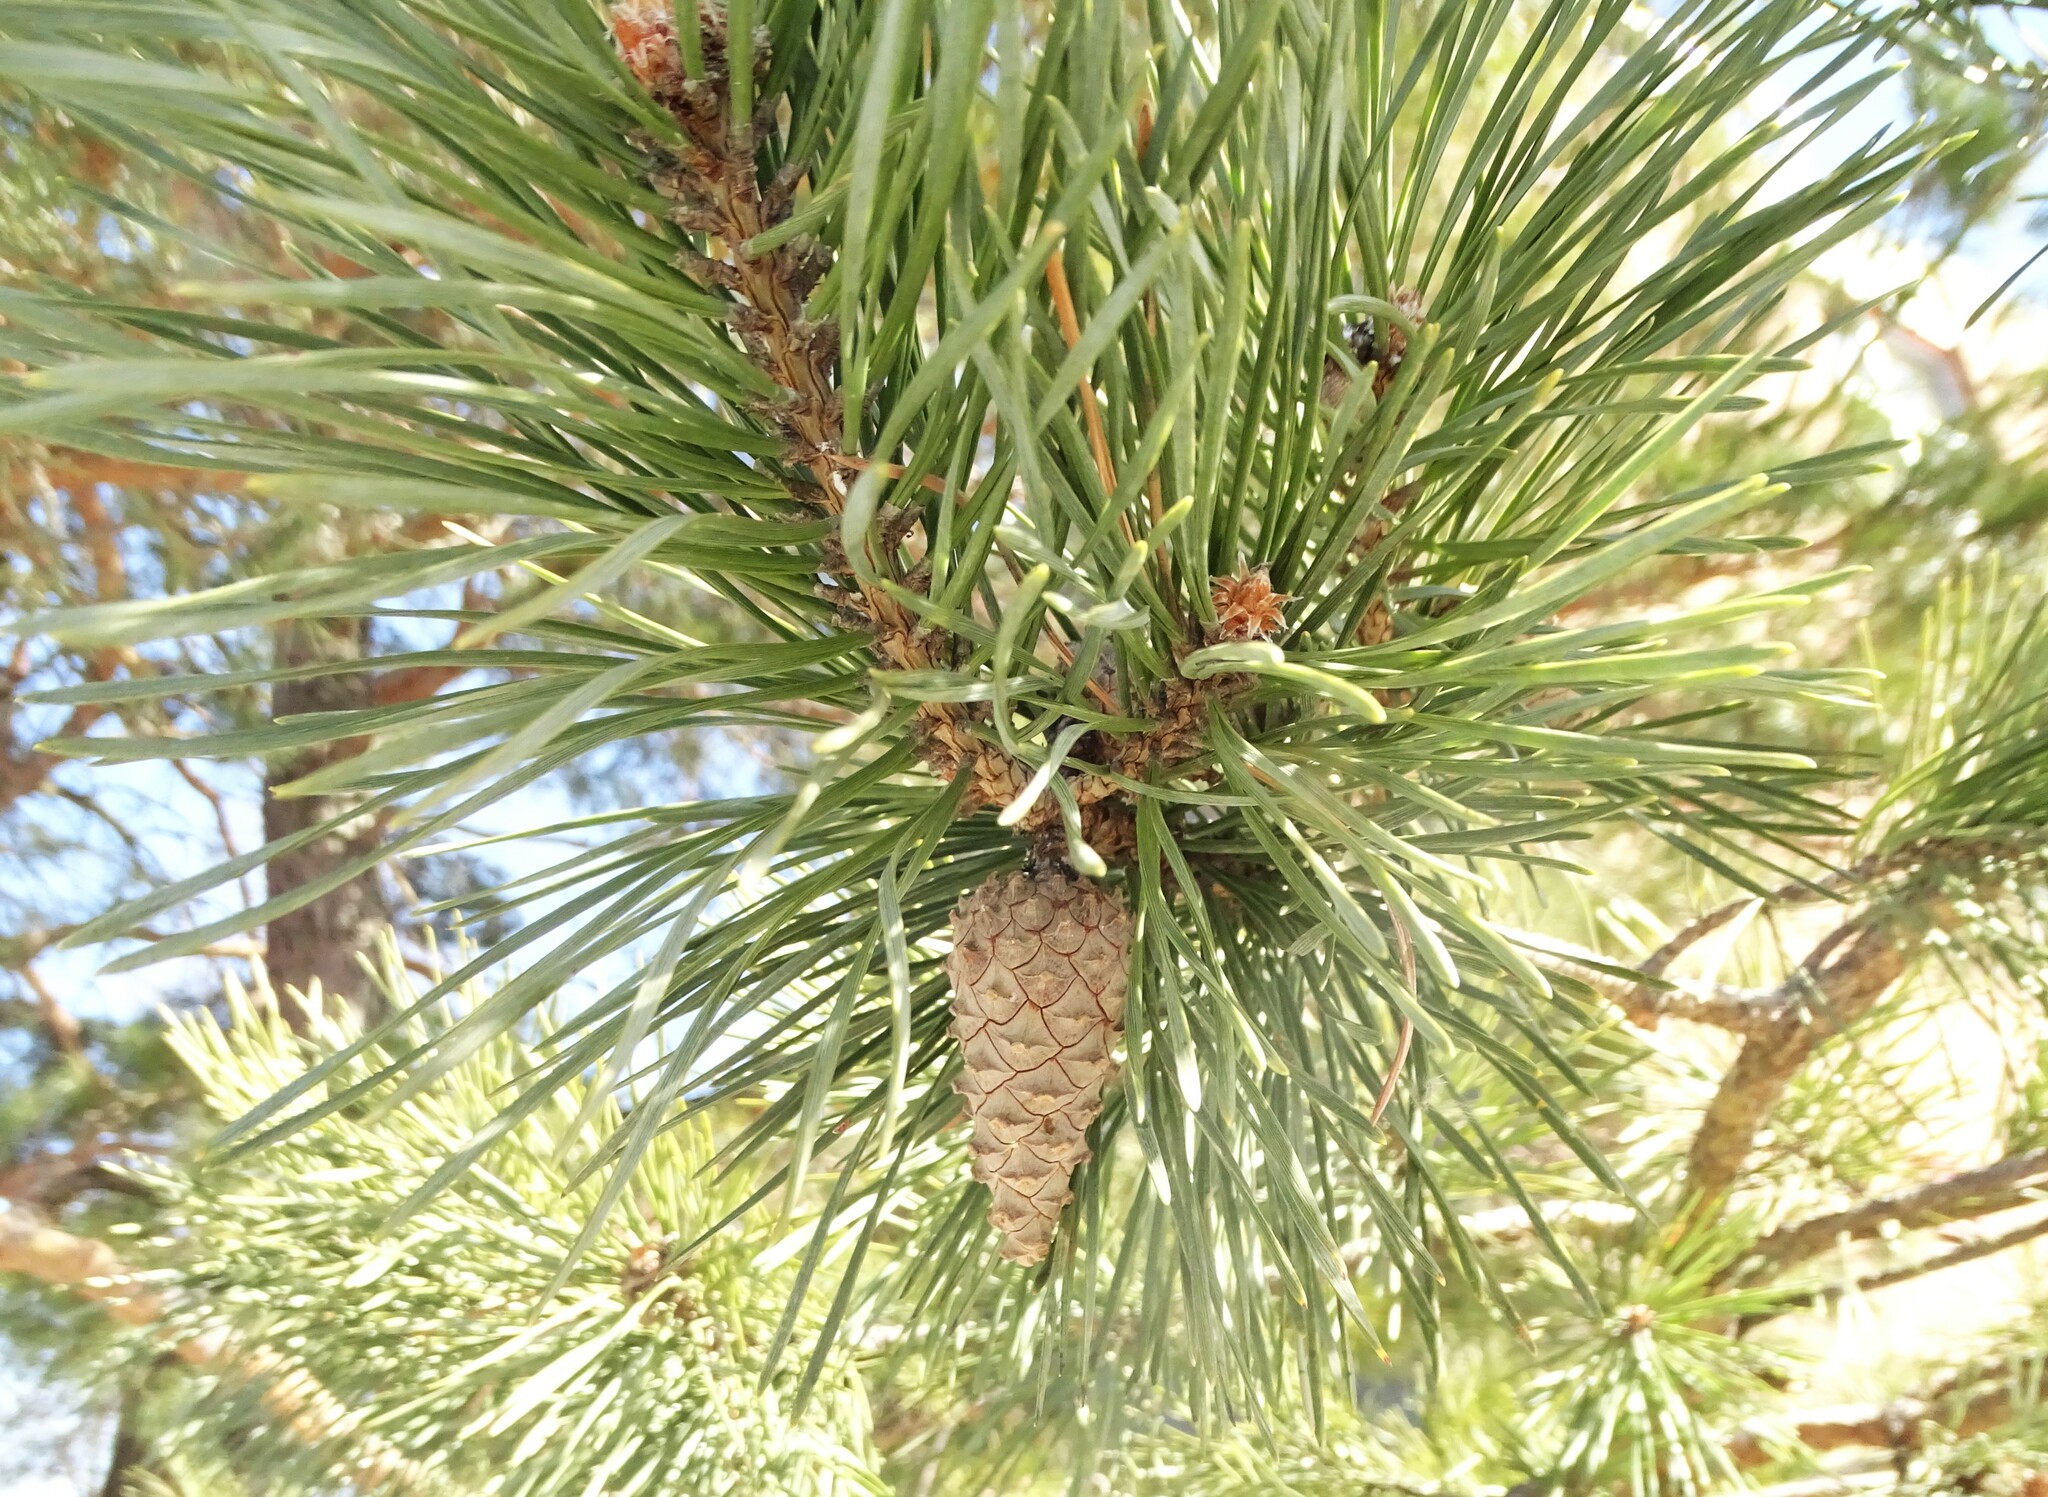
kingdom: Plantae
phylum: Tracheophyta
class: Pinopsida
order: Pinales
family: Pinaceae
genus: Pinus
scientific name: Pinus sylvestris
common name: Scots pine
